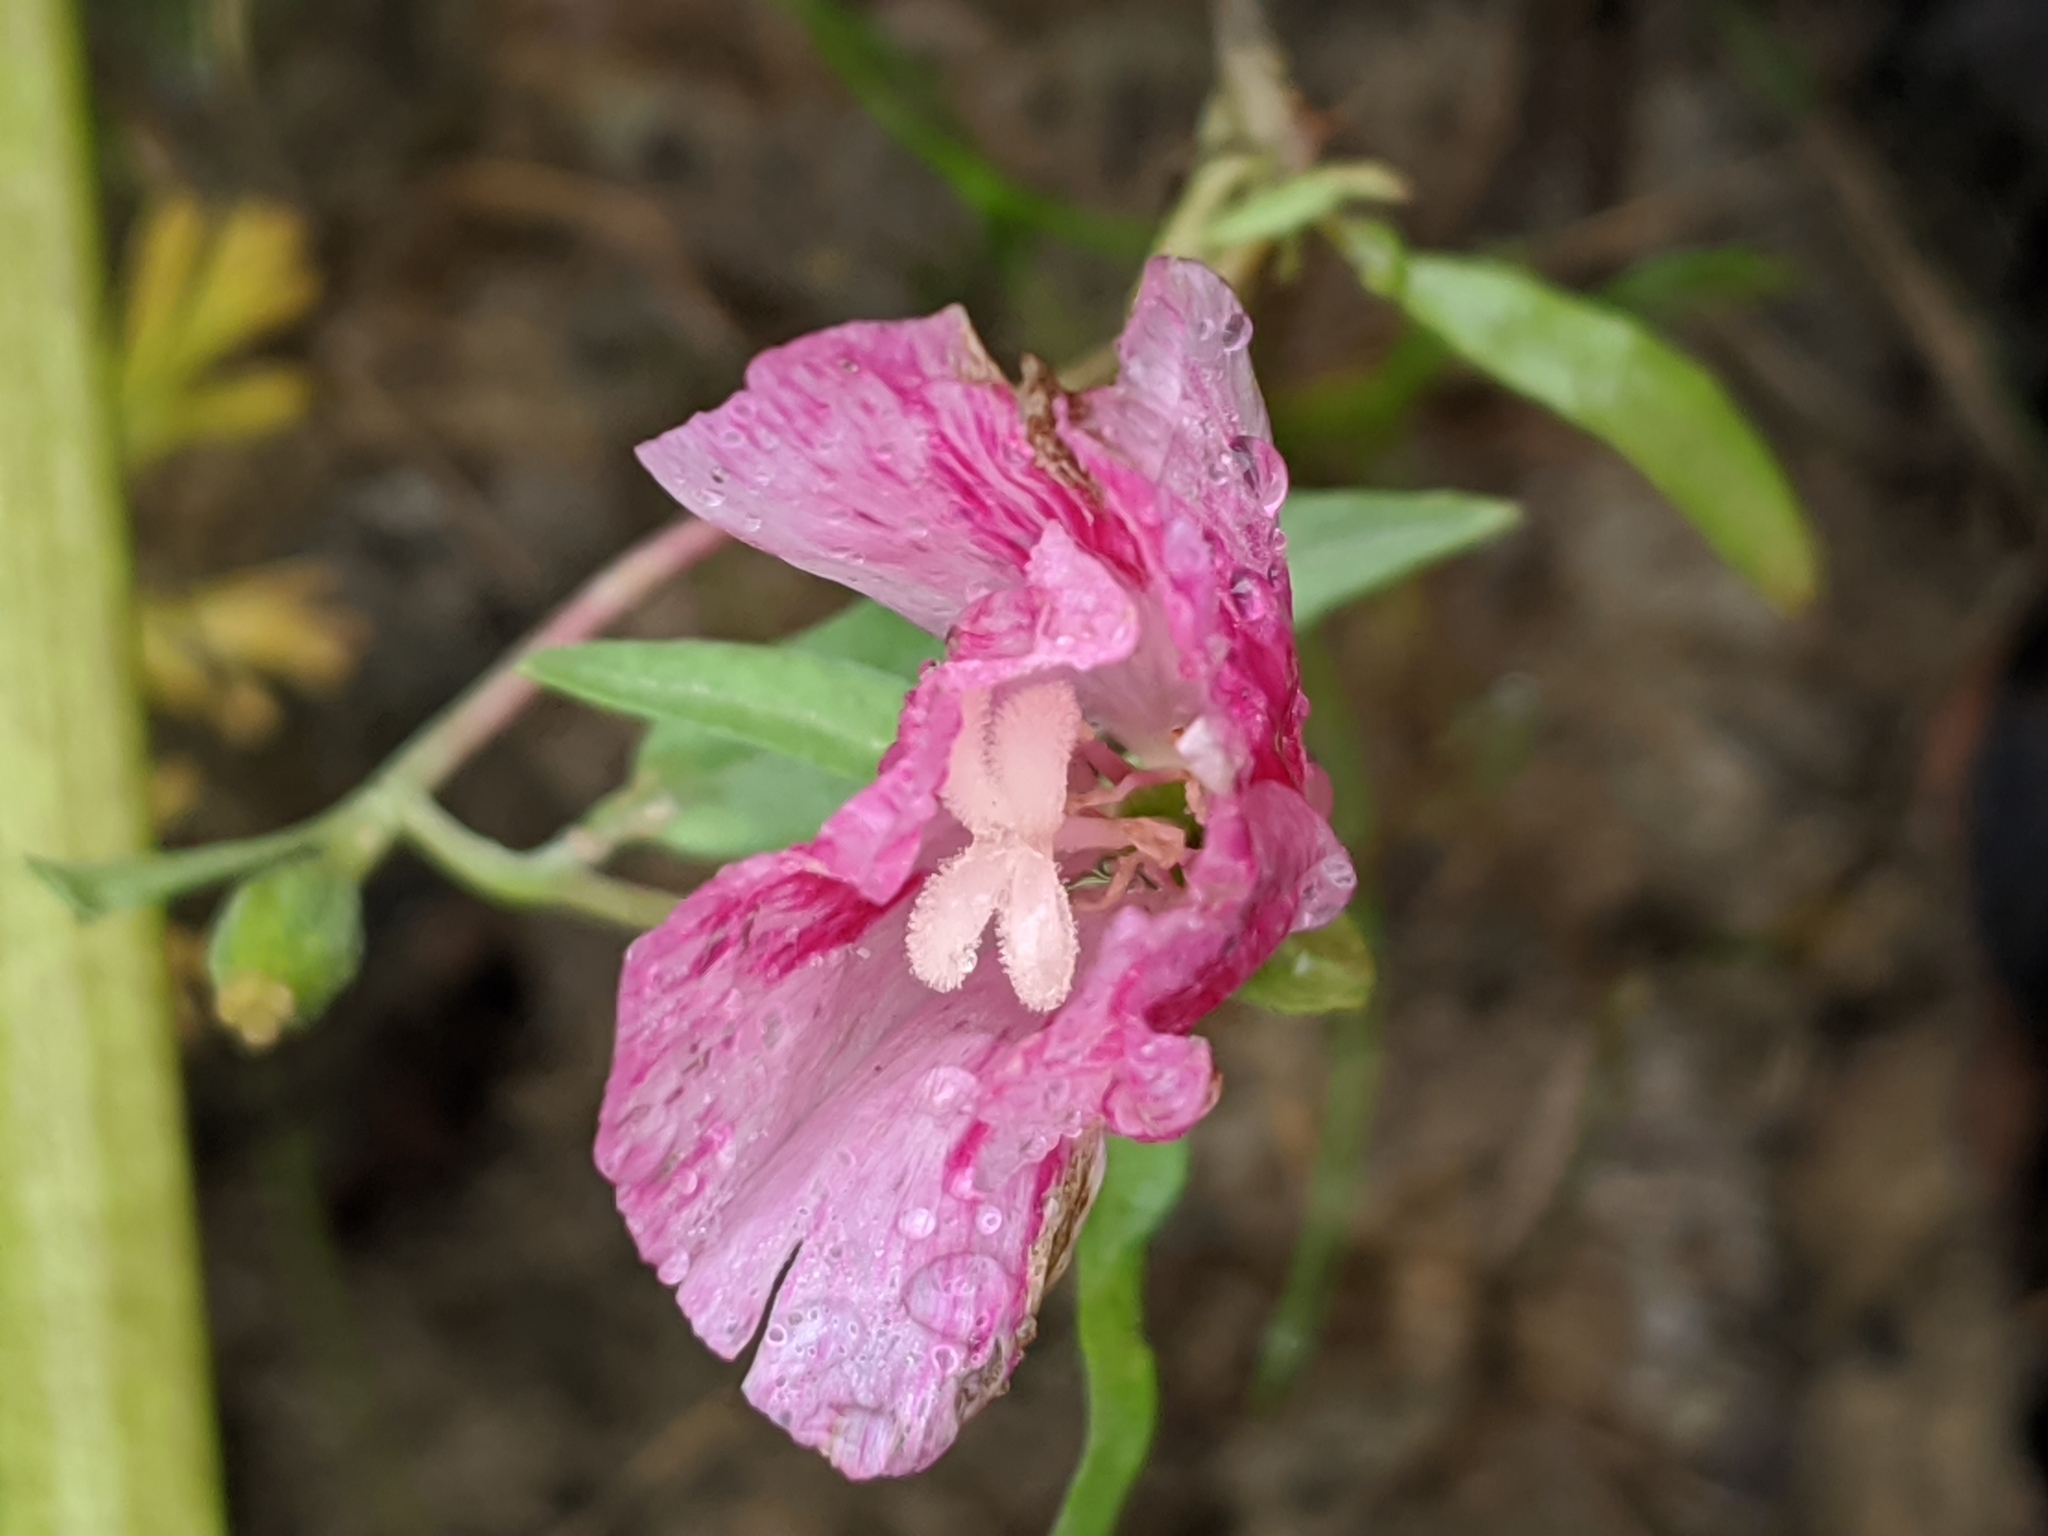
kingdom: Plantae
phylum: Tracheophyta
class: Magnoliopsida
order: Myrtales
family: Onagraceae
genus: Clarkia
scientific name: Clarkia amoena
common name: Godetia
